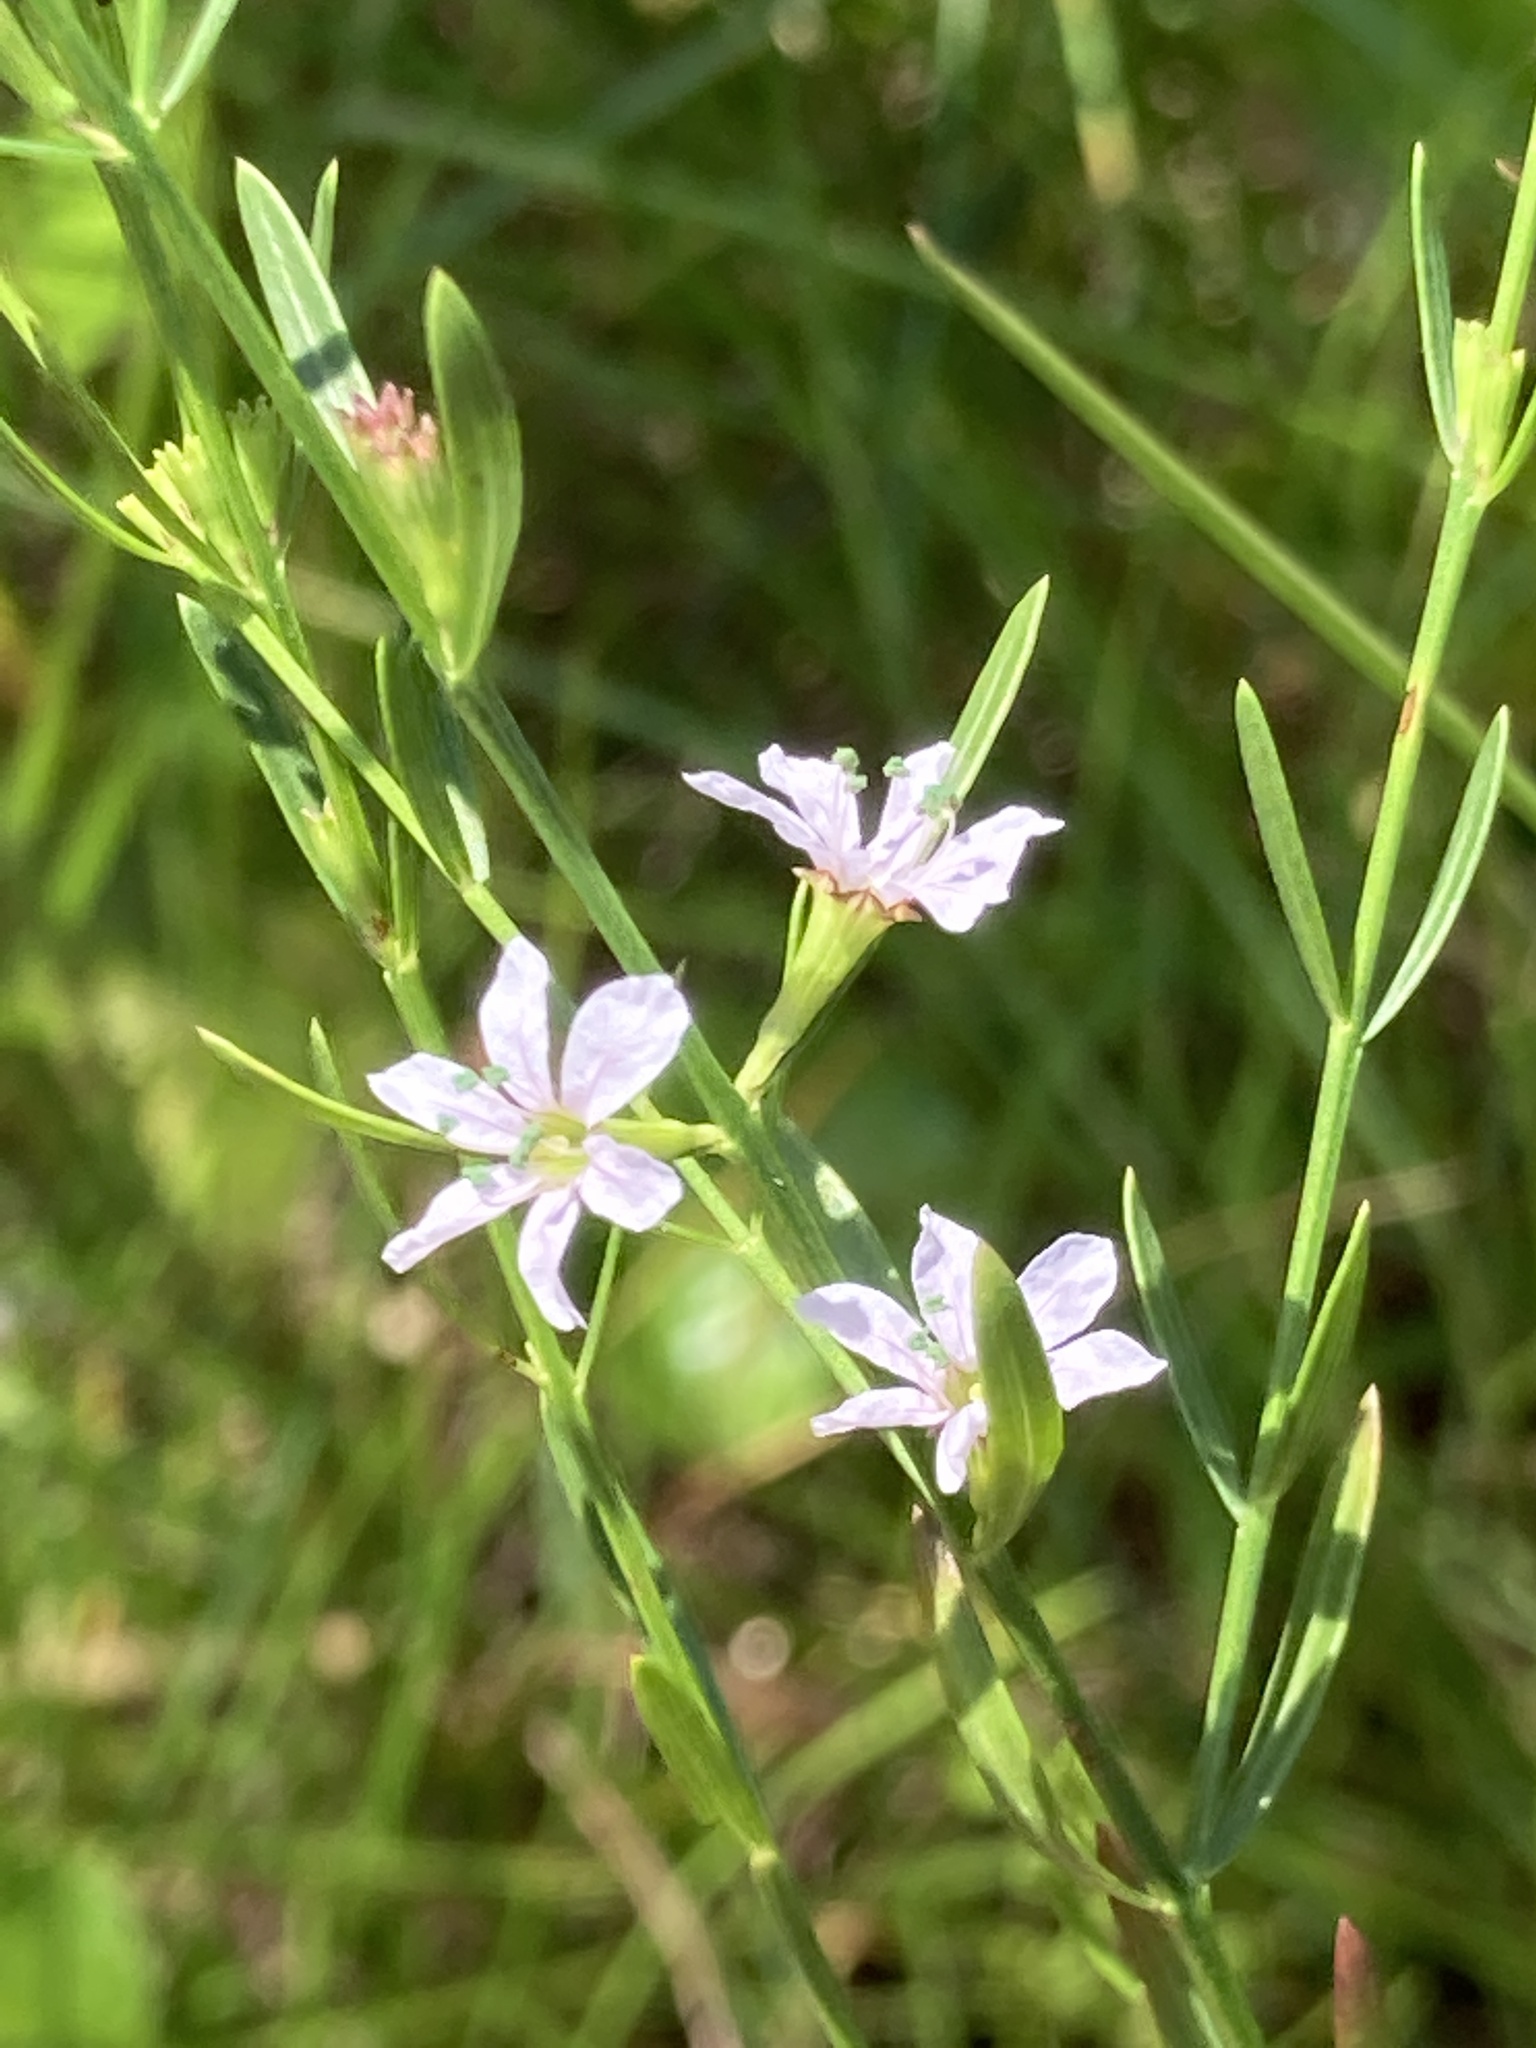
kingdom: Plantae
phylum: Tracheophyta
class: Magnoliopsida
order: Myrtales
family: Lythraceae
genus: Lythrum
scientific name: Lythrum lineare
